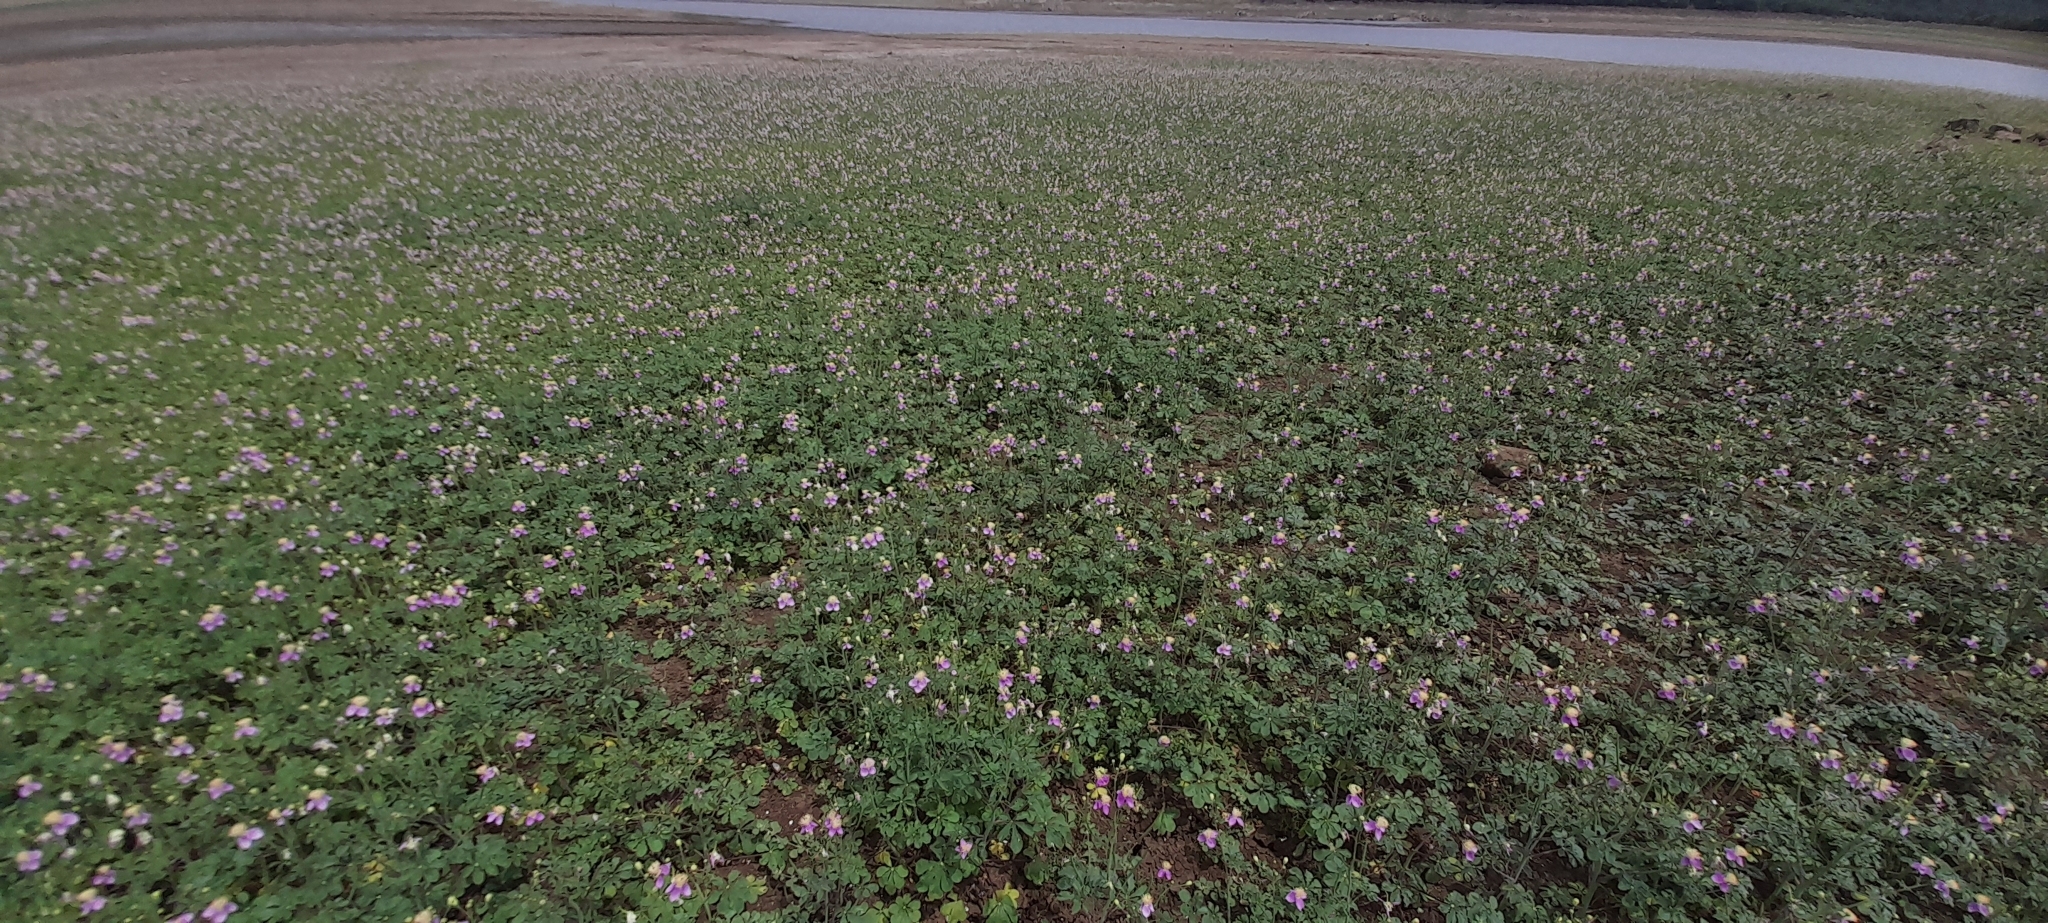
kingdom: Plantae
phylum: Tracheophyta
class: Magnoliopsida
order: Brassicales
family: Cleomaceae
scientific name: Cleomaceae
